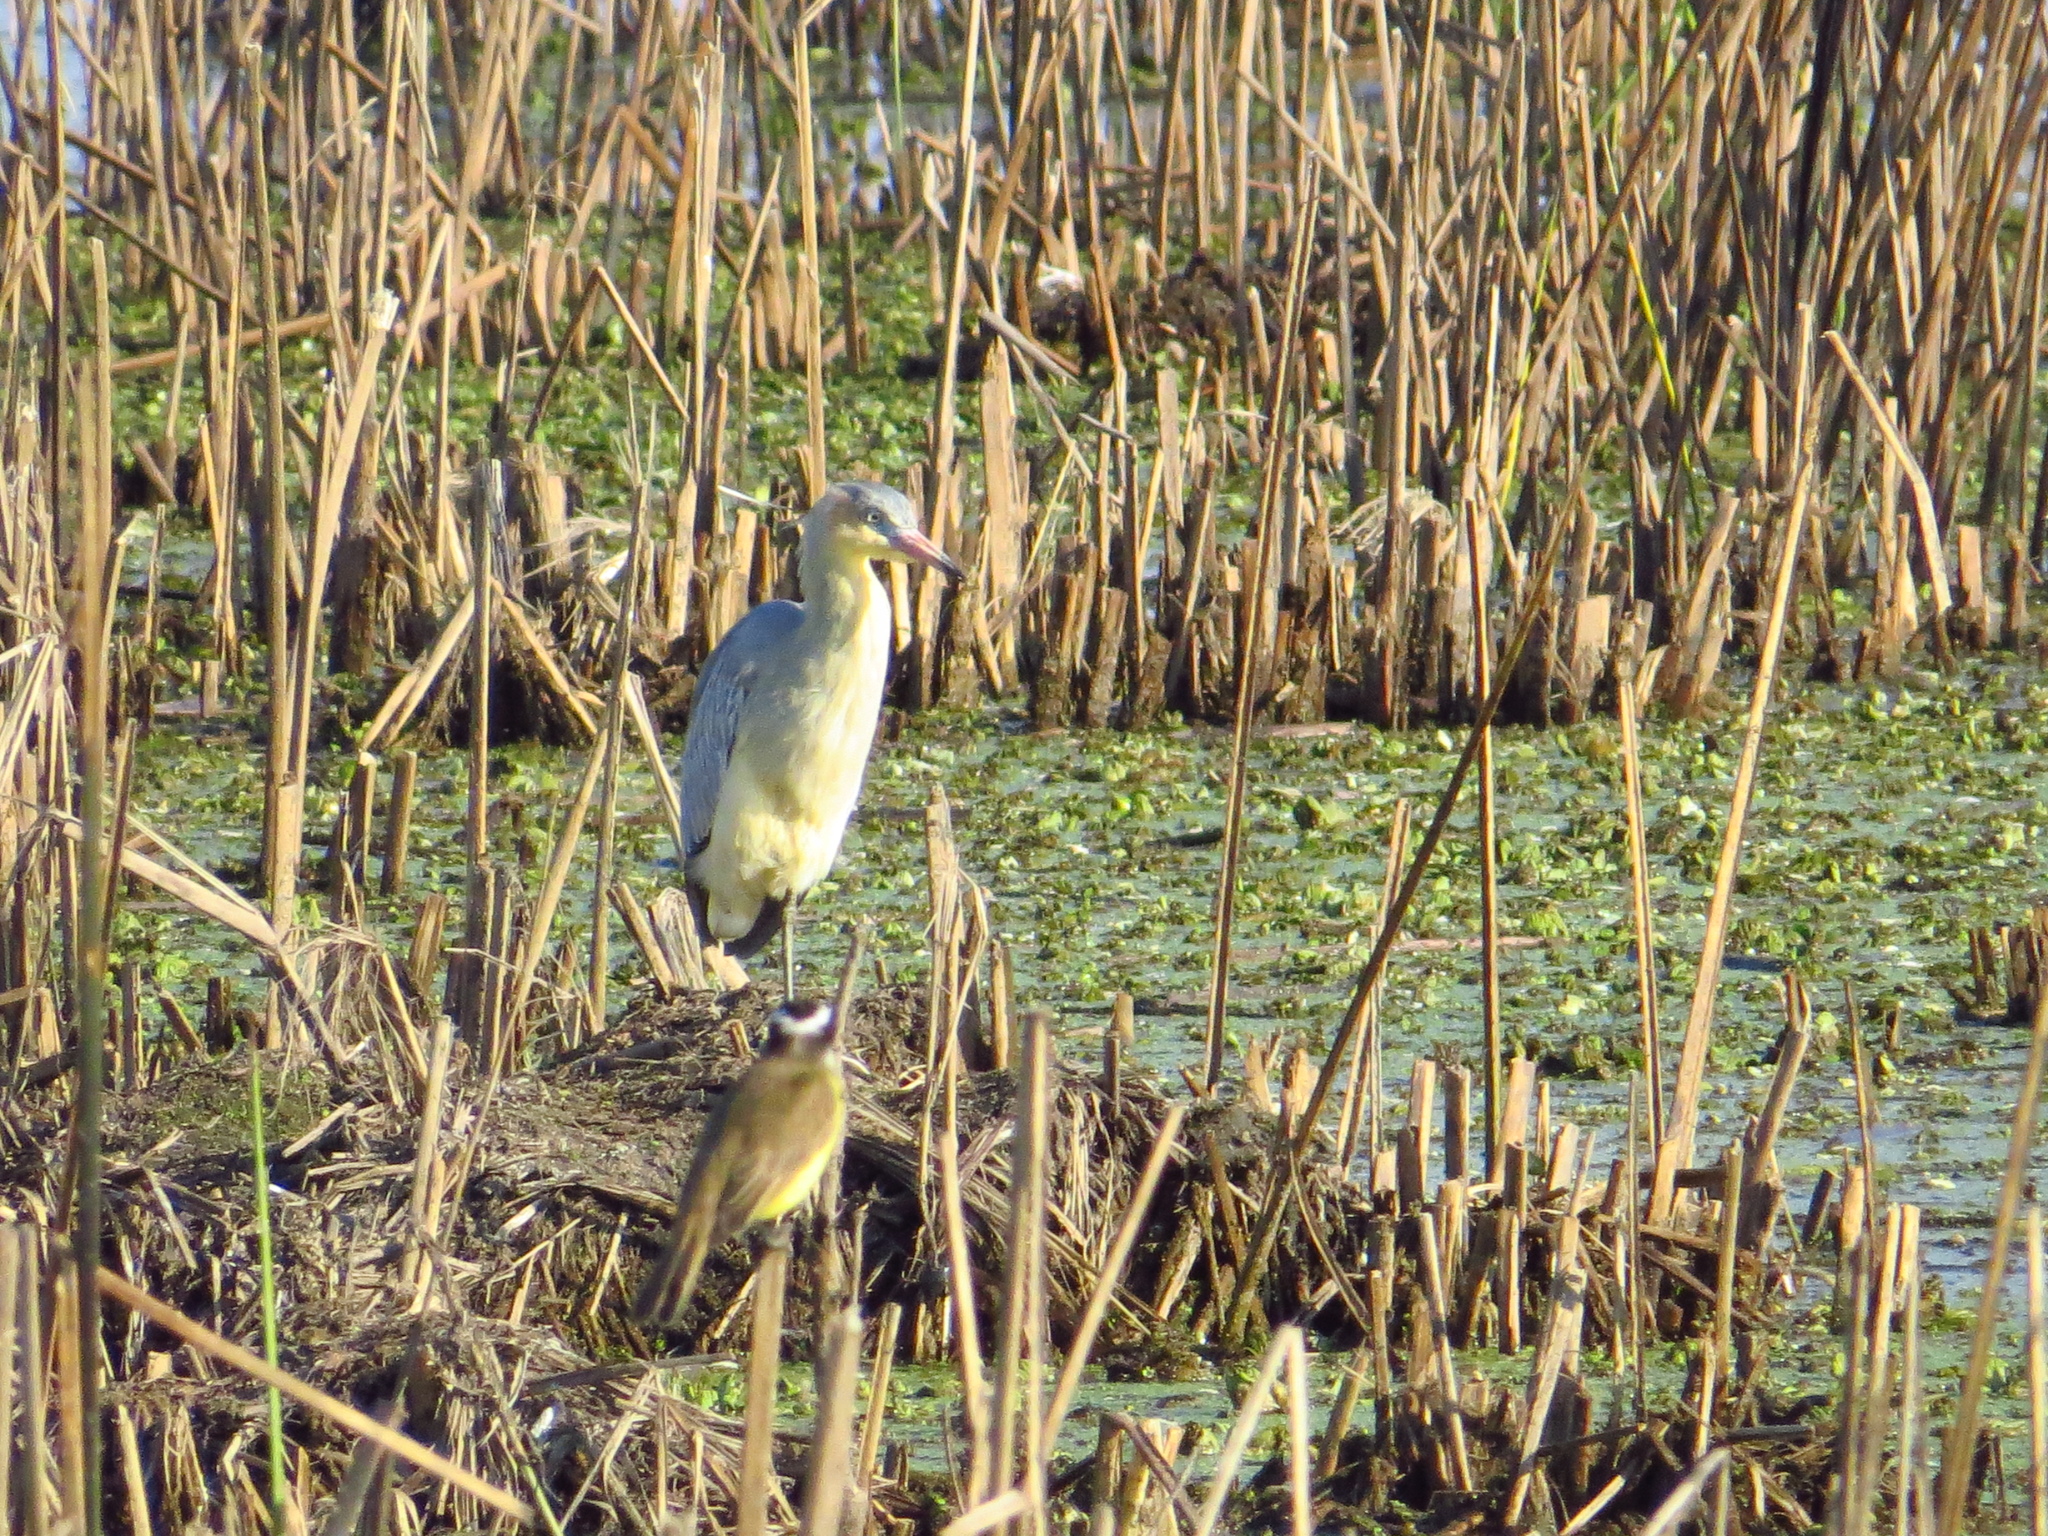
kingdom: Animalia
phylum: Chordata
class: Aves
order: Pelecaniformes
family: Ardeidae
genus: Syrigma
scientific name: Syrigma sibilatrix
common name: Whistling heron
